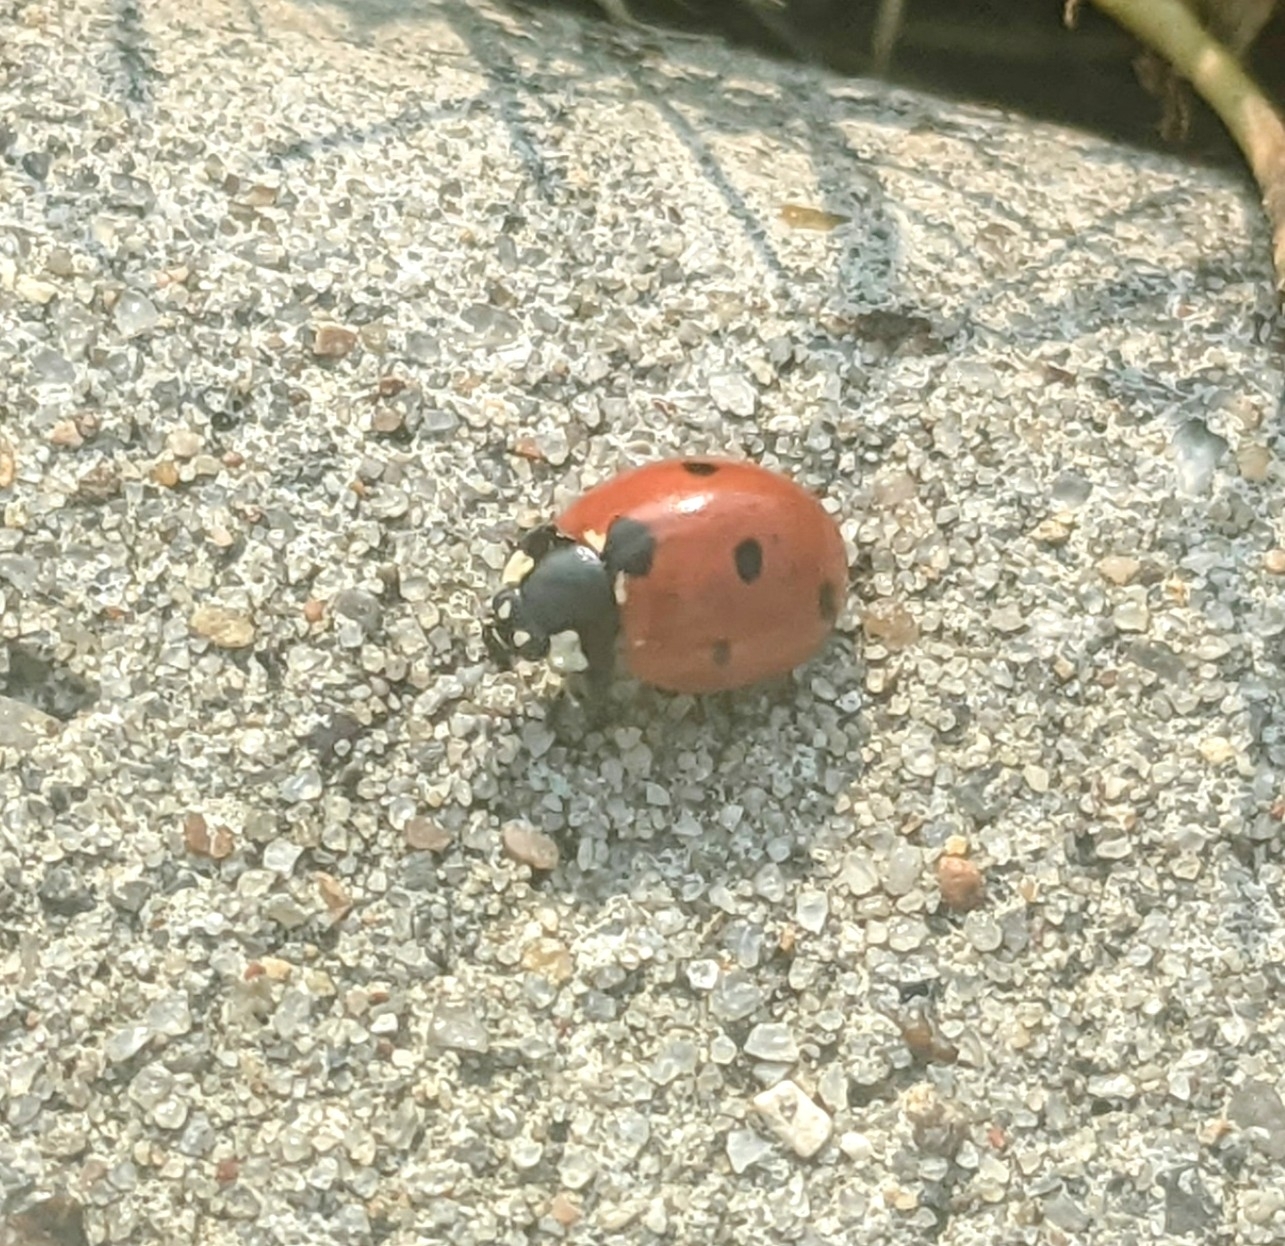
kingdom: Animalia
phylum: Arthropoda
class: Insecta
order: Coleoptera
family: Coccinellidae
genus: Coccinella
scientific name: Coccinella septempunctata
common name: Sevenspotted lady beetle
